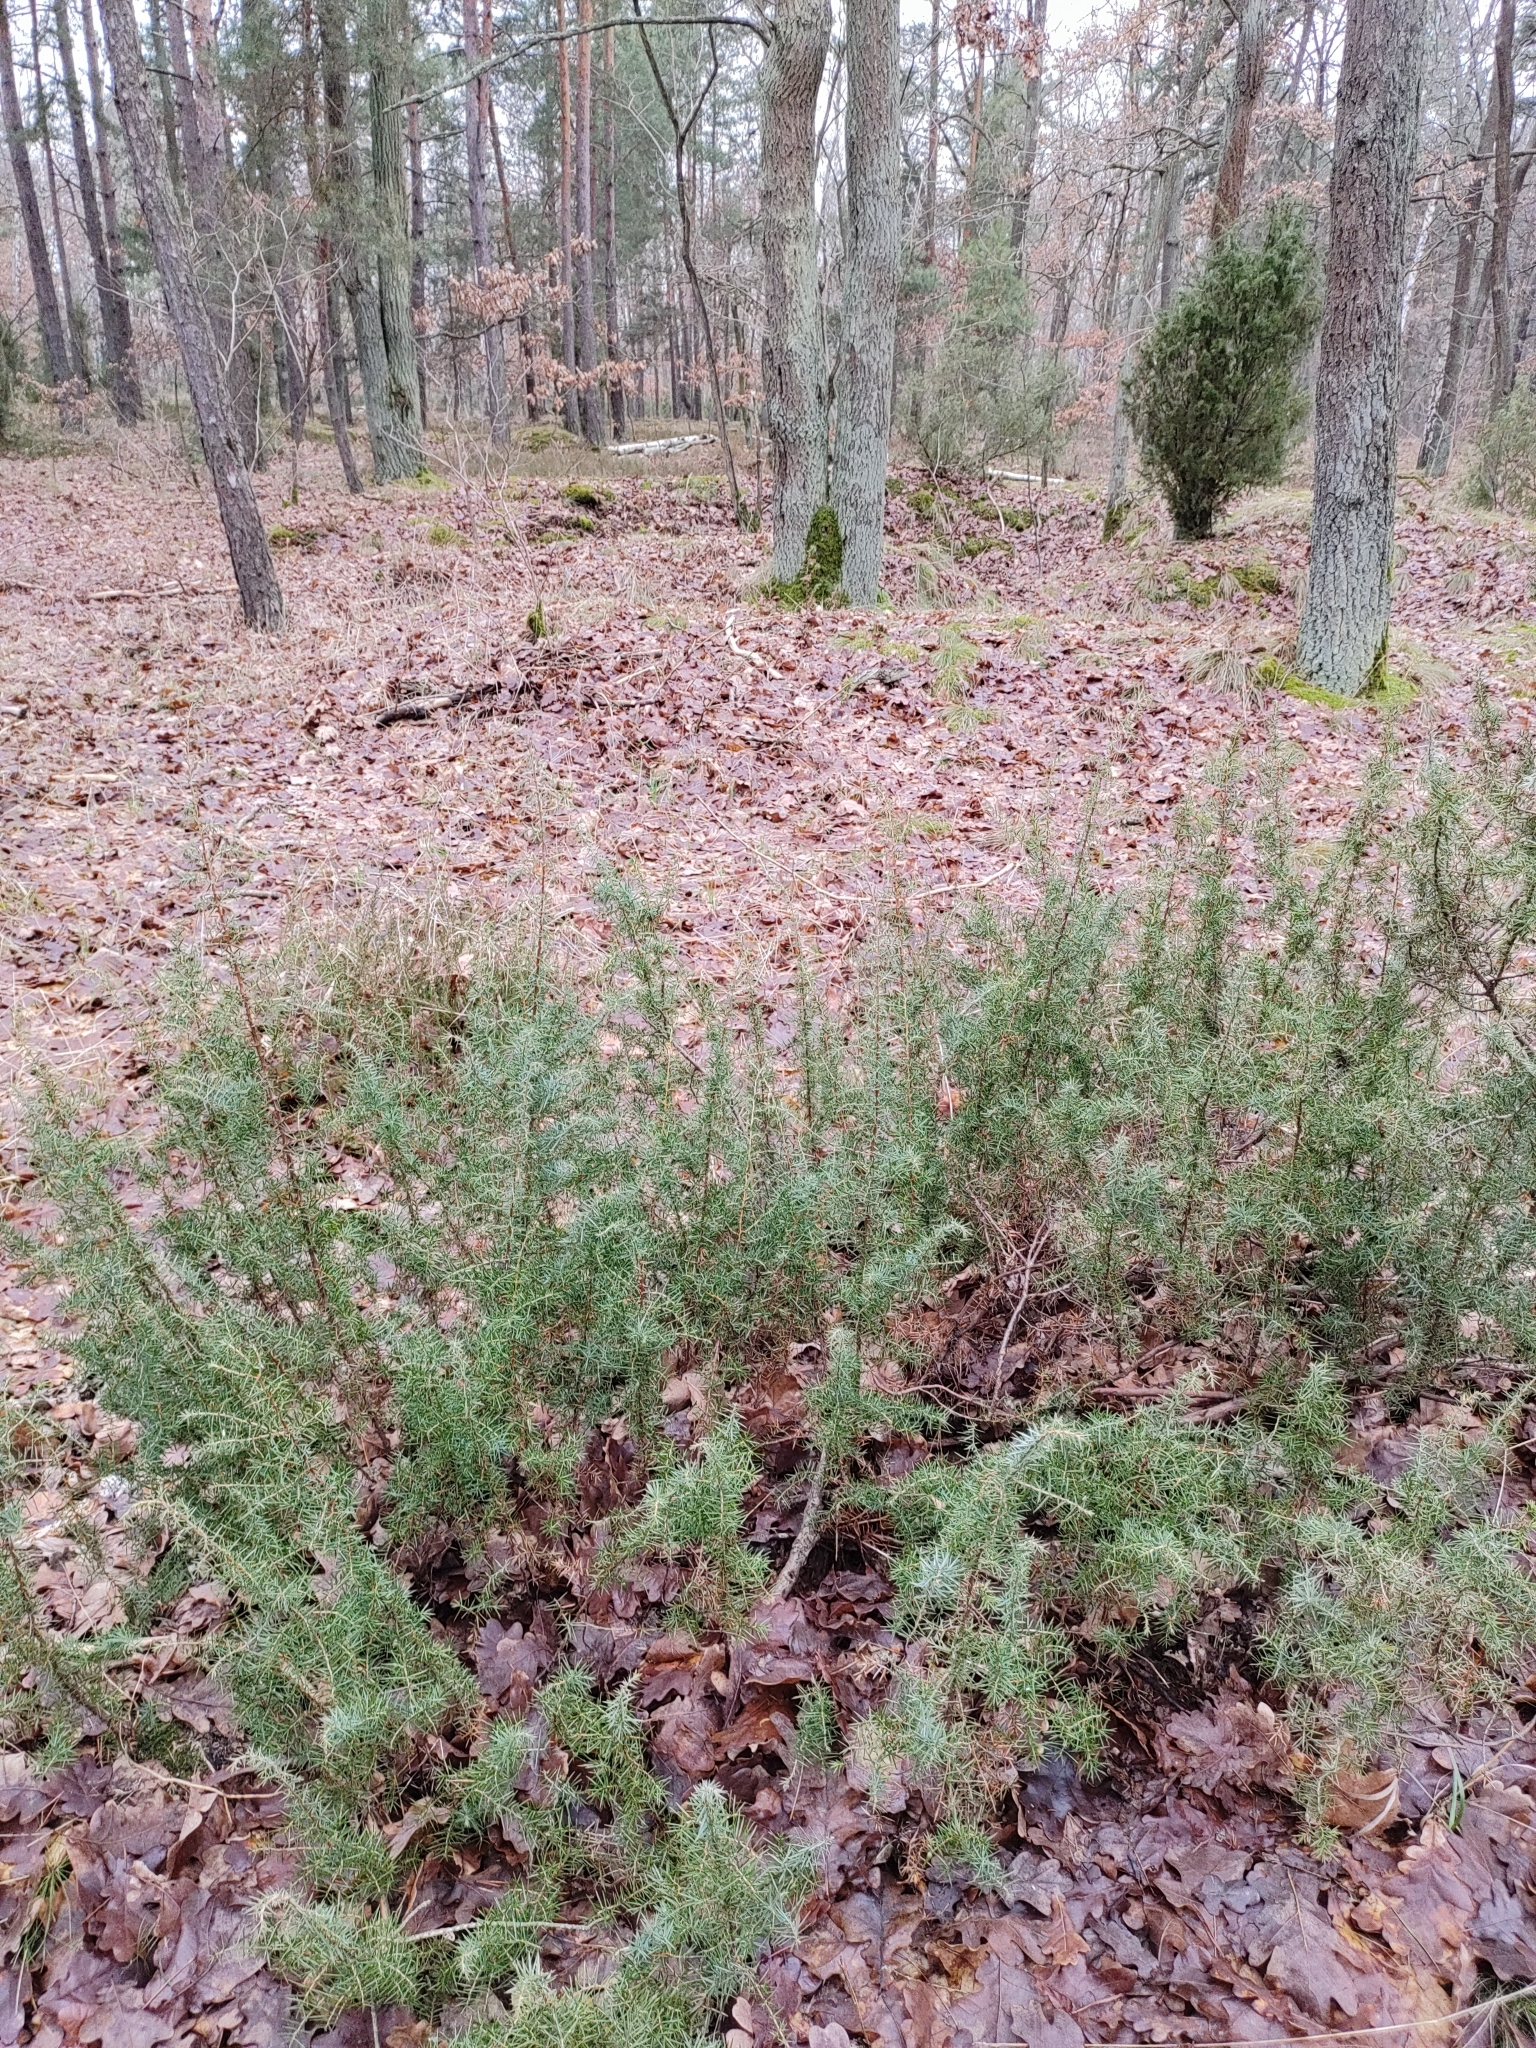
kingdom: Plantae
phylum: Tracheophyta
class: Pinopsida
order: Pinales
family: Cupressaceae
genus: Juniperus
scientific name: Juniperus communis
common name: Common juniper
